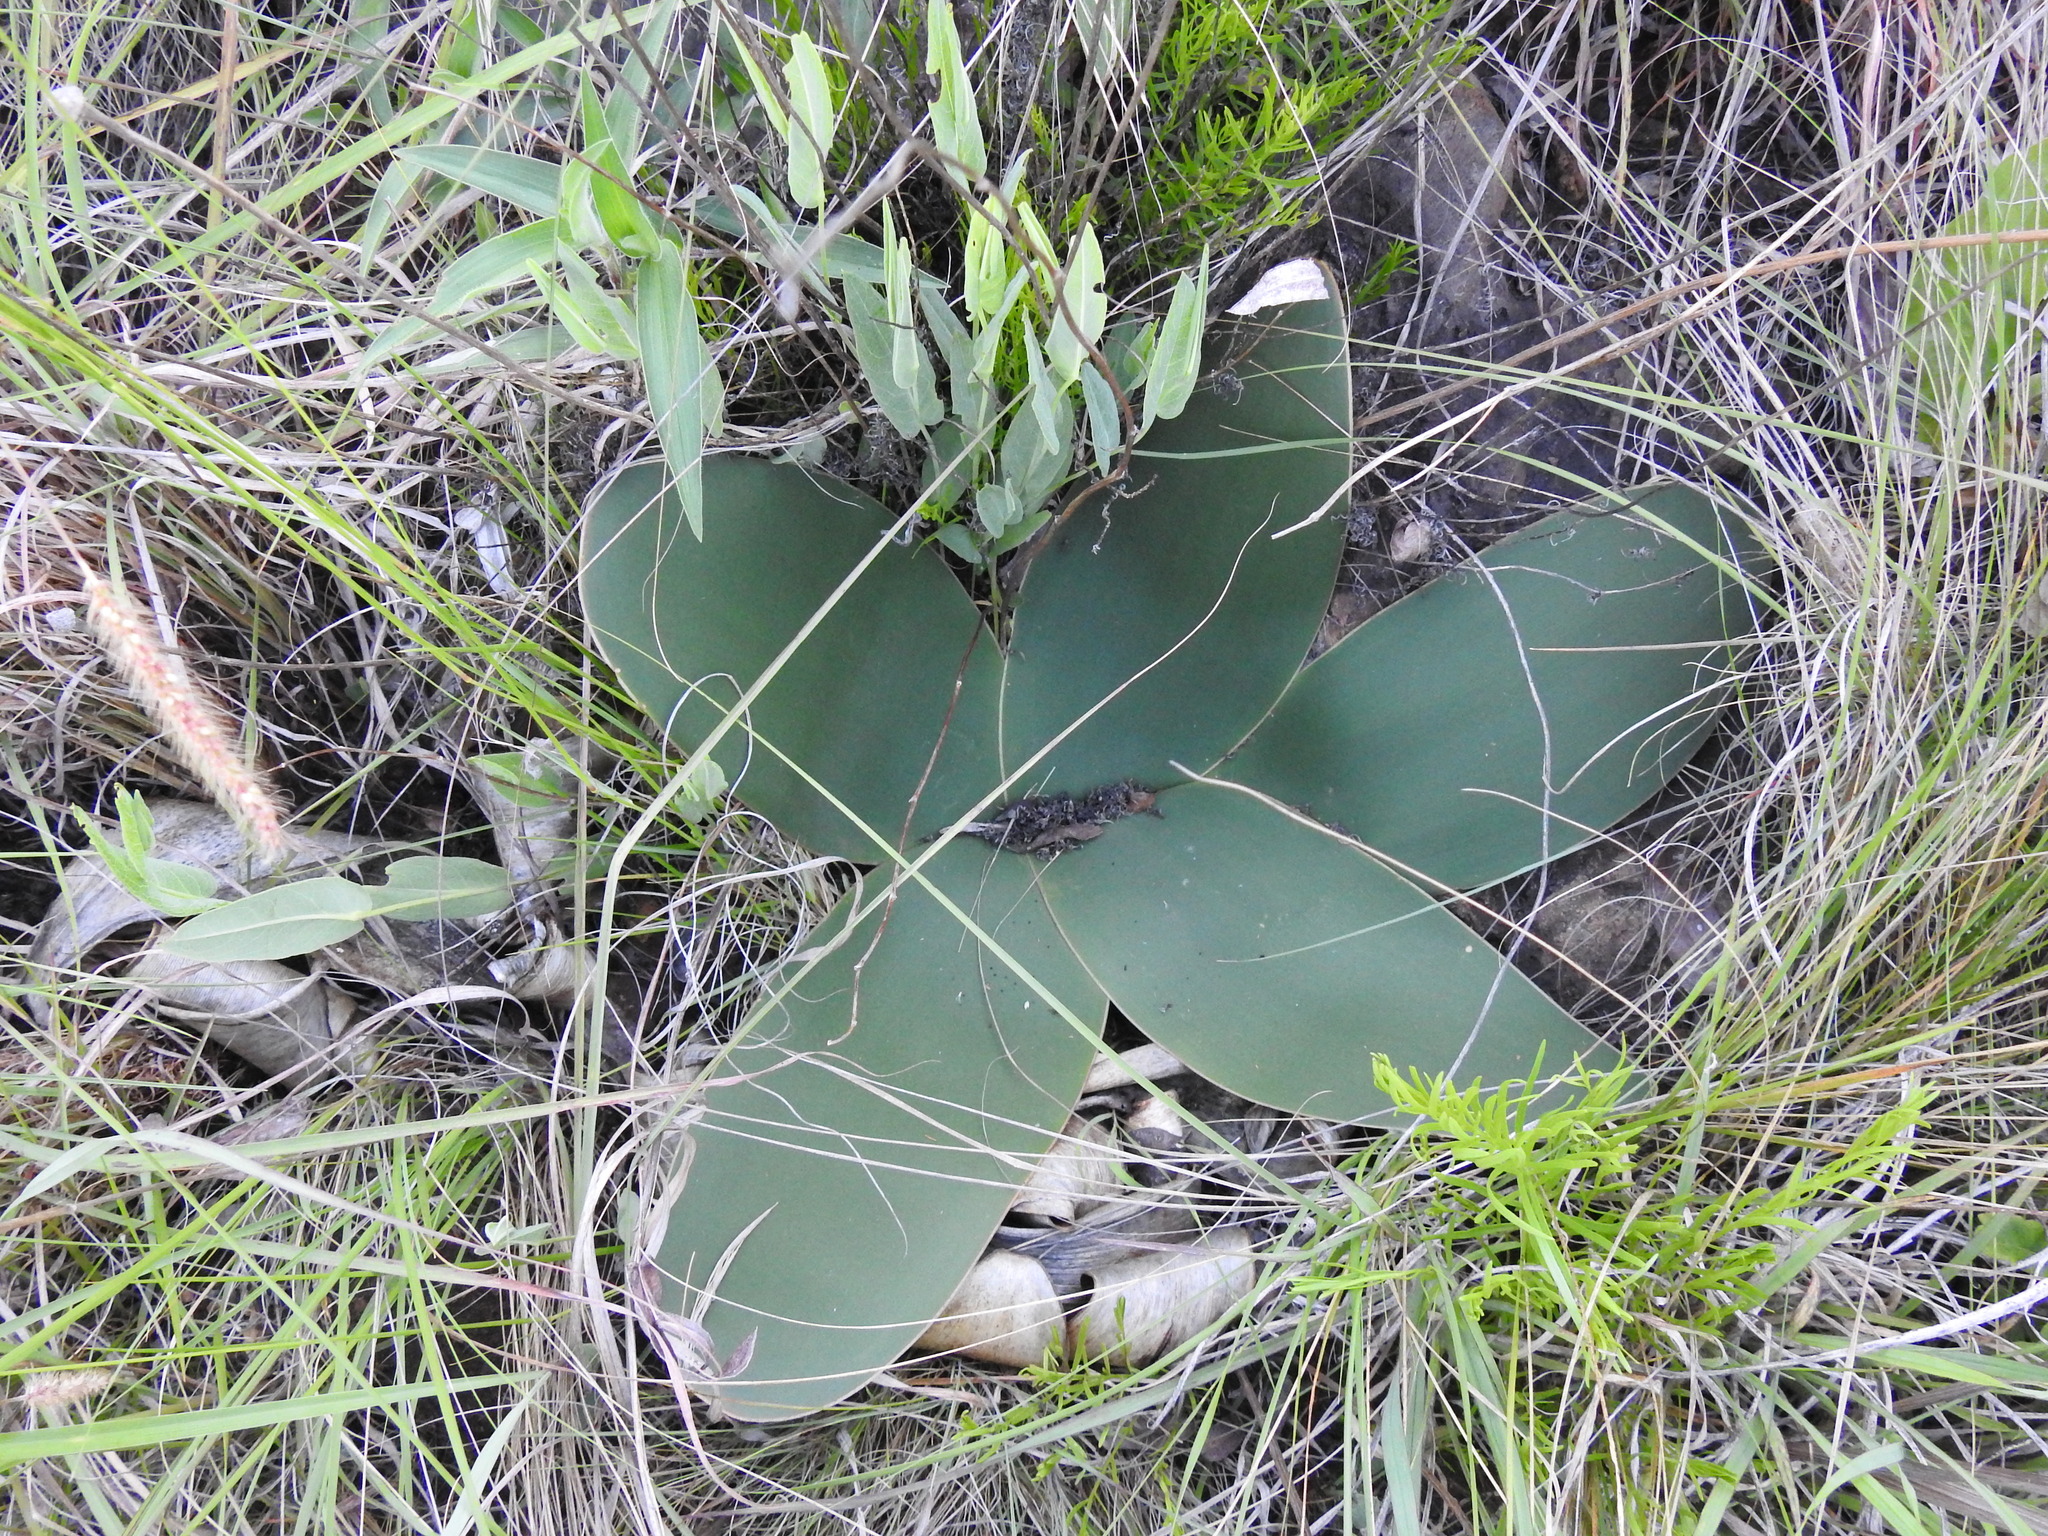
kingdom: Plantae
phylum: Tracheophyta
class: Liliopsida
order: Asparagales
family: Amaryllidaceae
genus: Brunsvigia
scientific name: Brunsvigia radulosa
